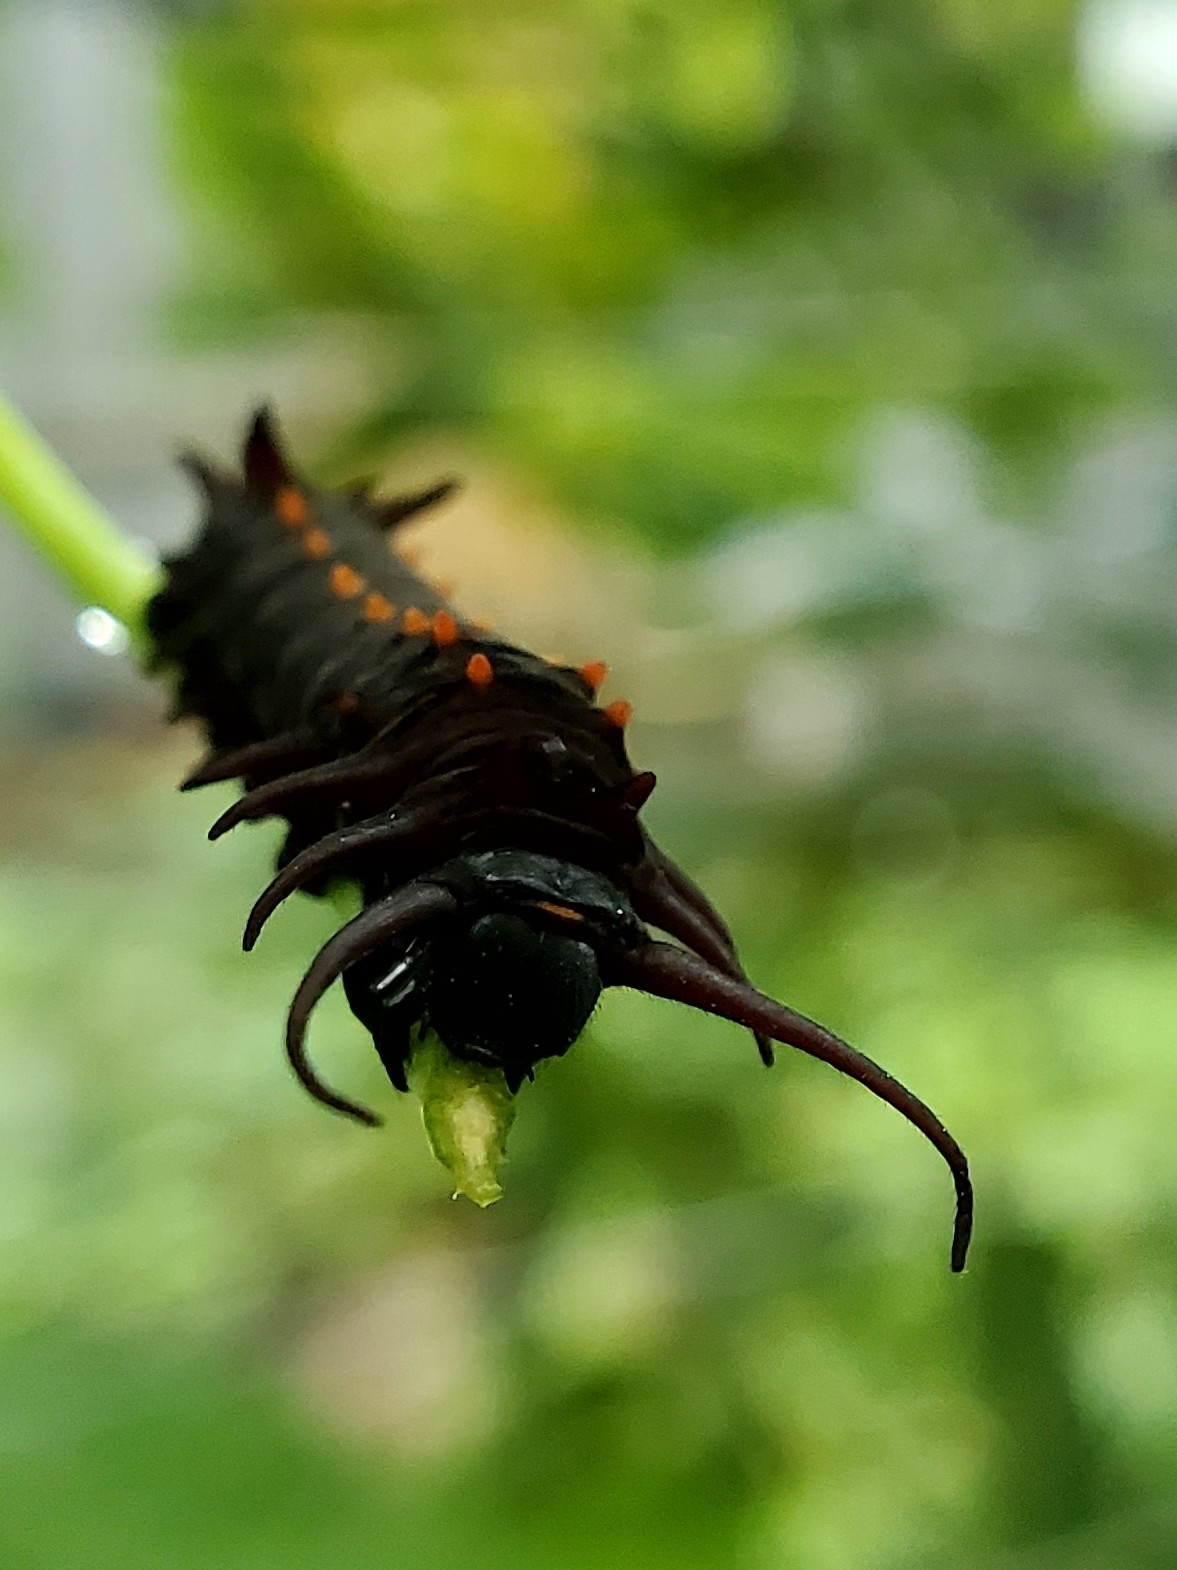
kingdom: Animalia
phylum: Arthropoda
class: Insecta
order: Lepidoptera
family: Papilionidae
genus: Battus
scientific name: Battus philenor
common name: Pipevine swallowtail
